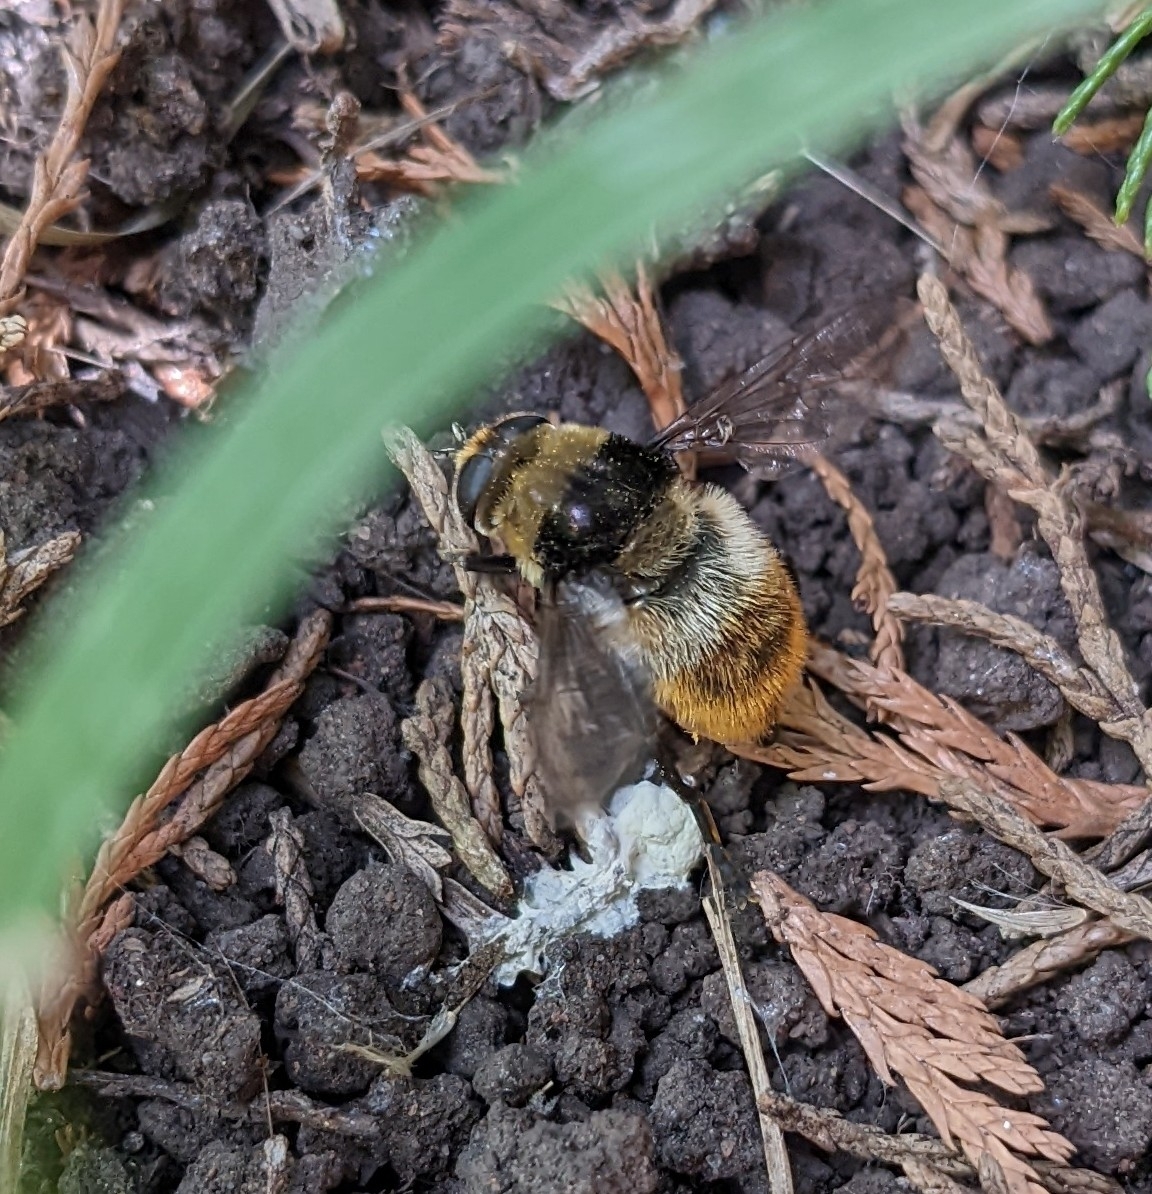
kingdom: Animalia
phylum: Arthropoda
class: Insecta
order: Diptera
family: Syrphidae
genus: Merodon
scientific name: Merodon equestris
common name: Greater bulb-fly
